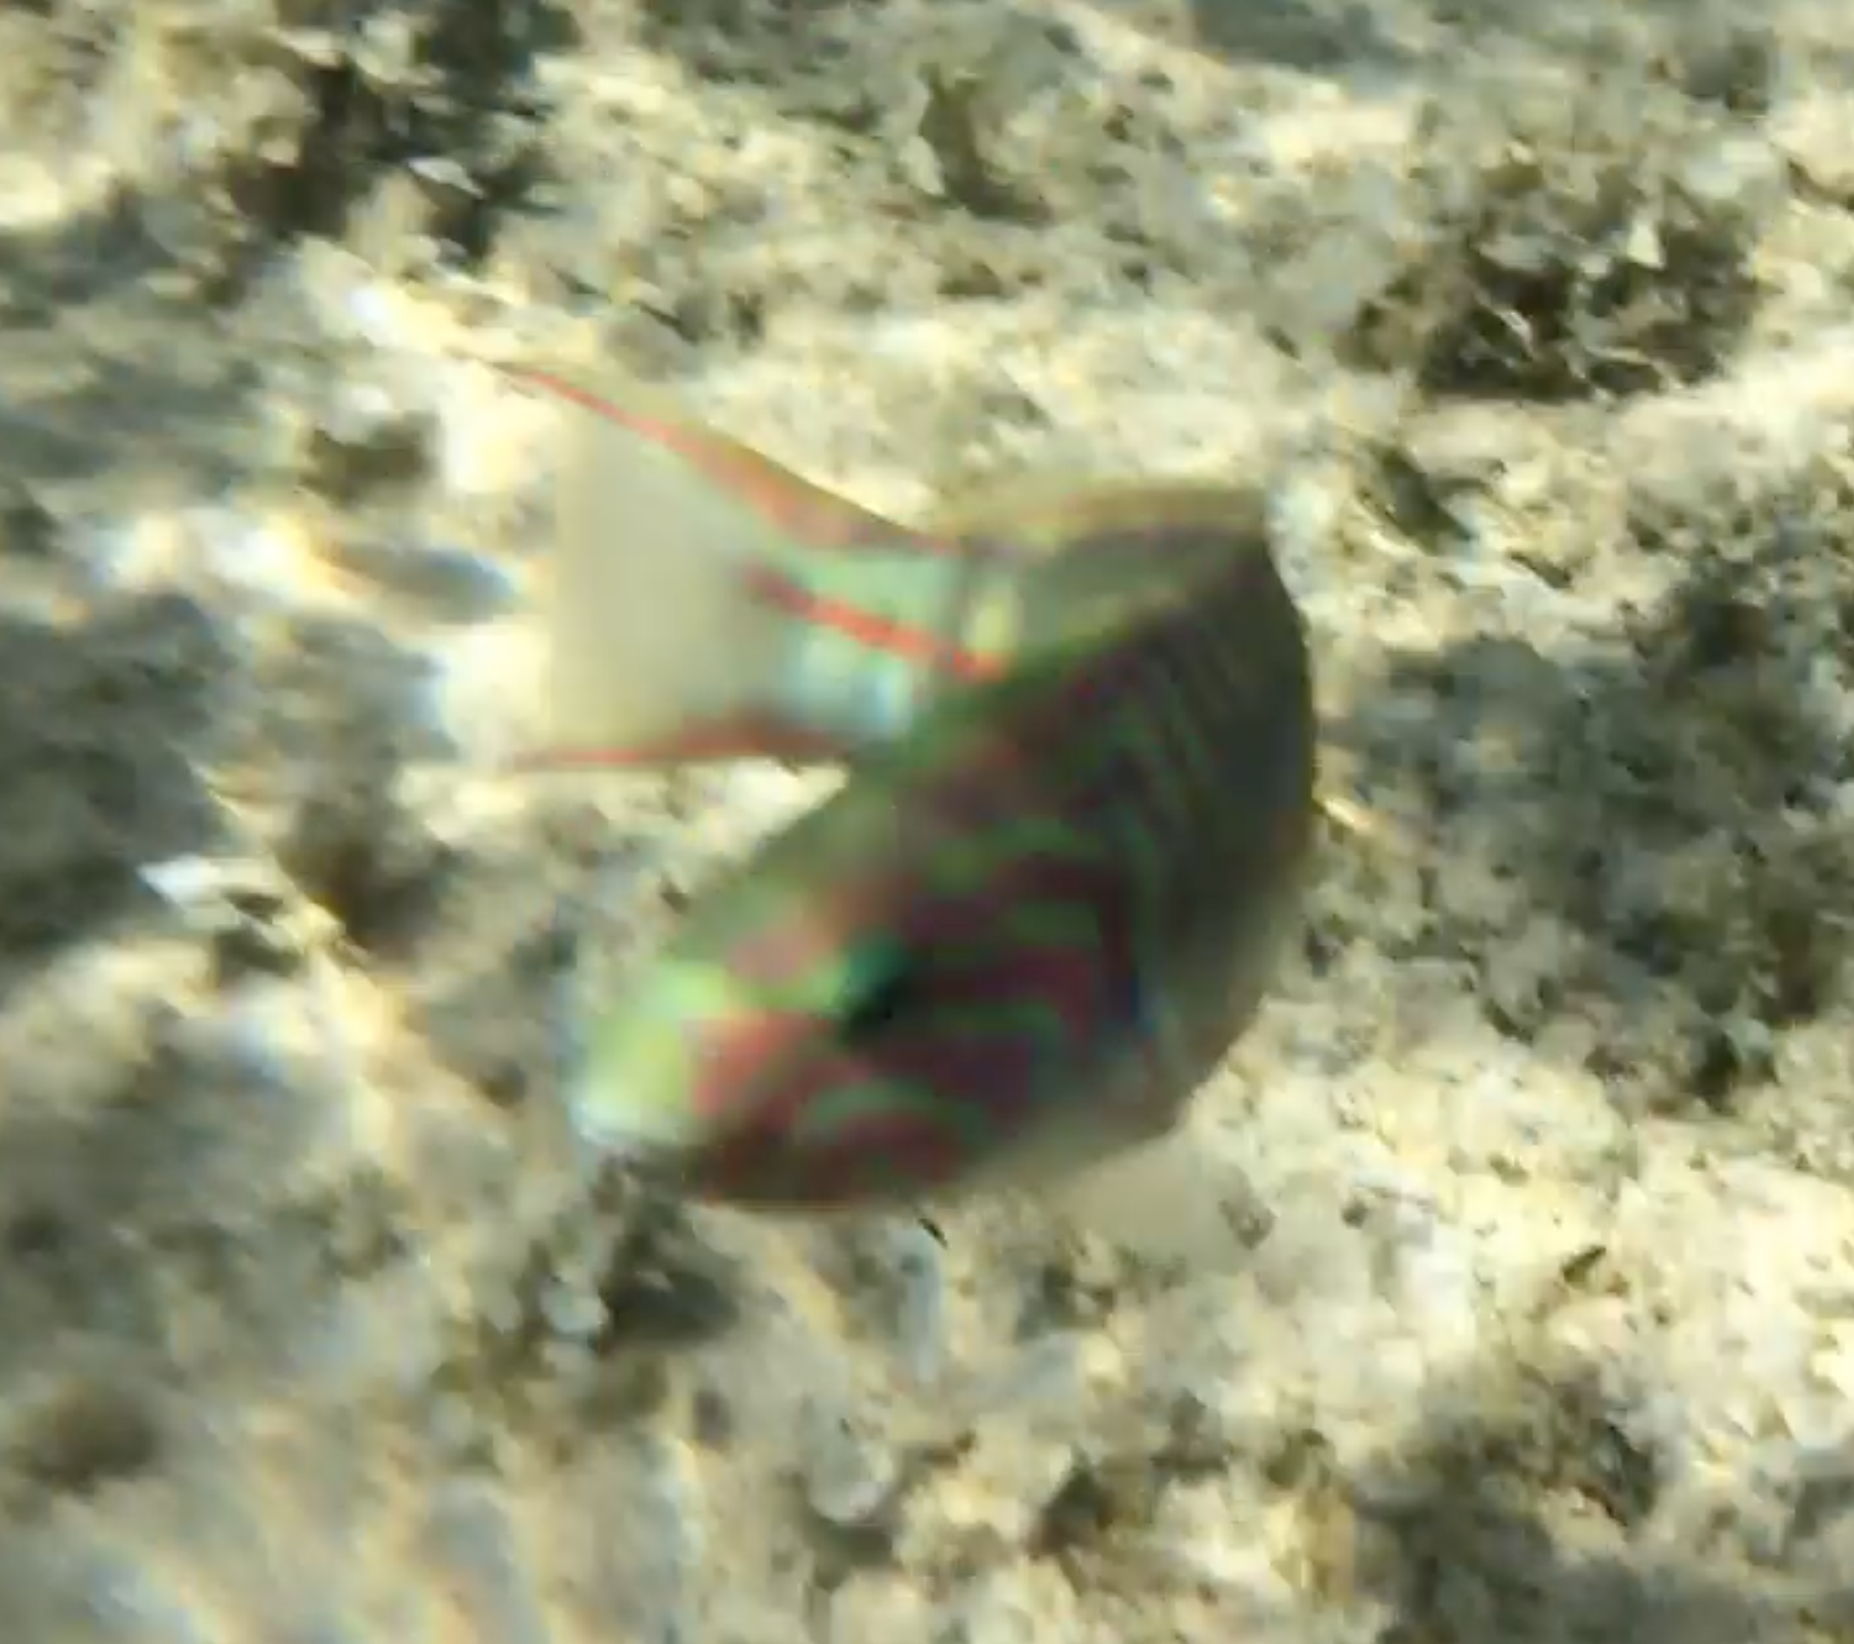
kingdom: Animalia
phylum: Chordata
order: Perciformes
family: Labridae
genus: Thalassoma
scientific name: Thalassoma rueppellii
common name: Klunzinger's wrasse
